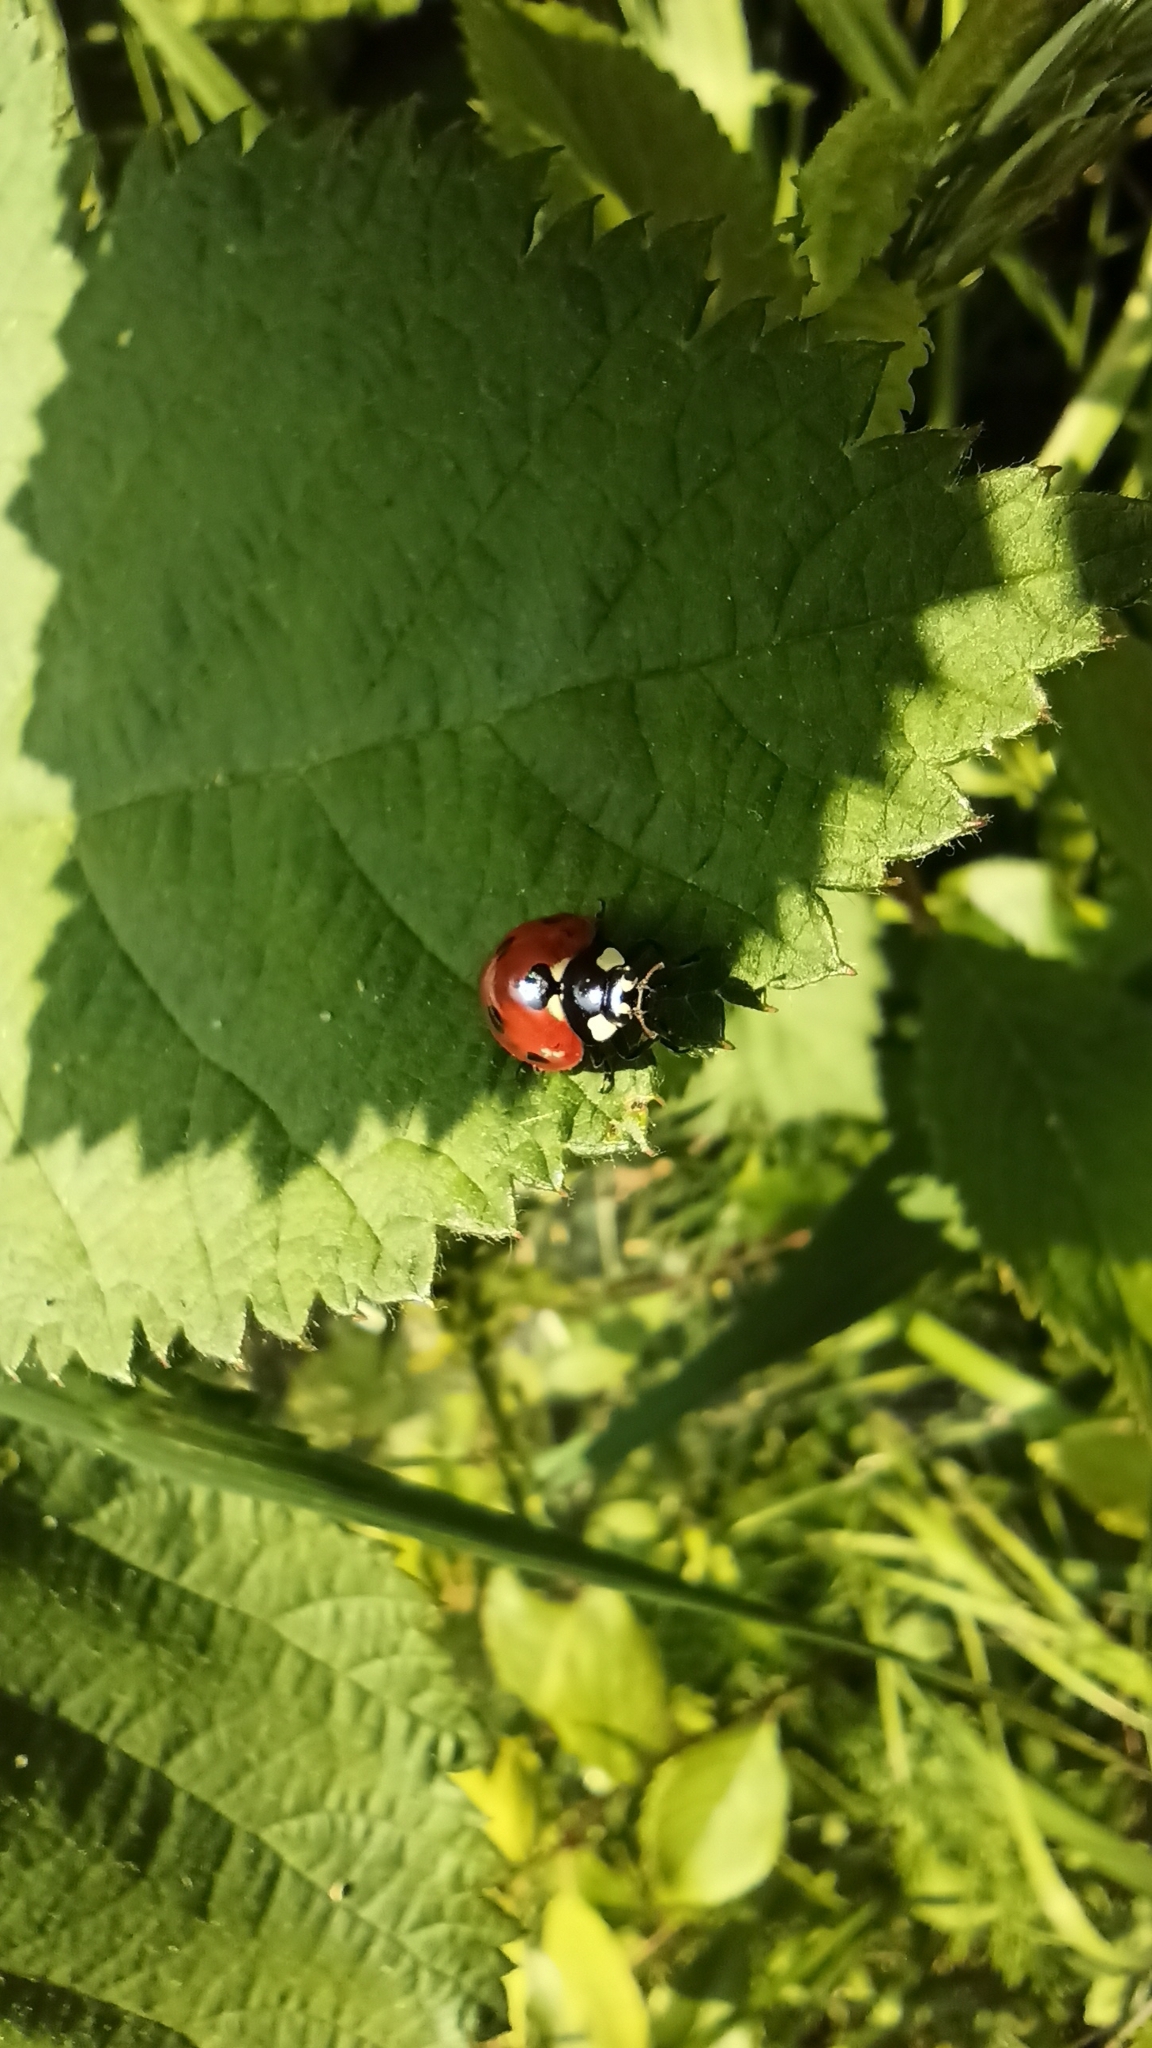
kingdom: Animalia
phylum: Arthropoda
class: Insecta
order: Coleoptera
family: Coccinellidae
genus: Coccinella
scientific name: Coccinella septempunctata
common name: Sevenspotted lady beetle
